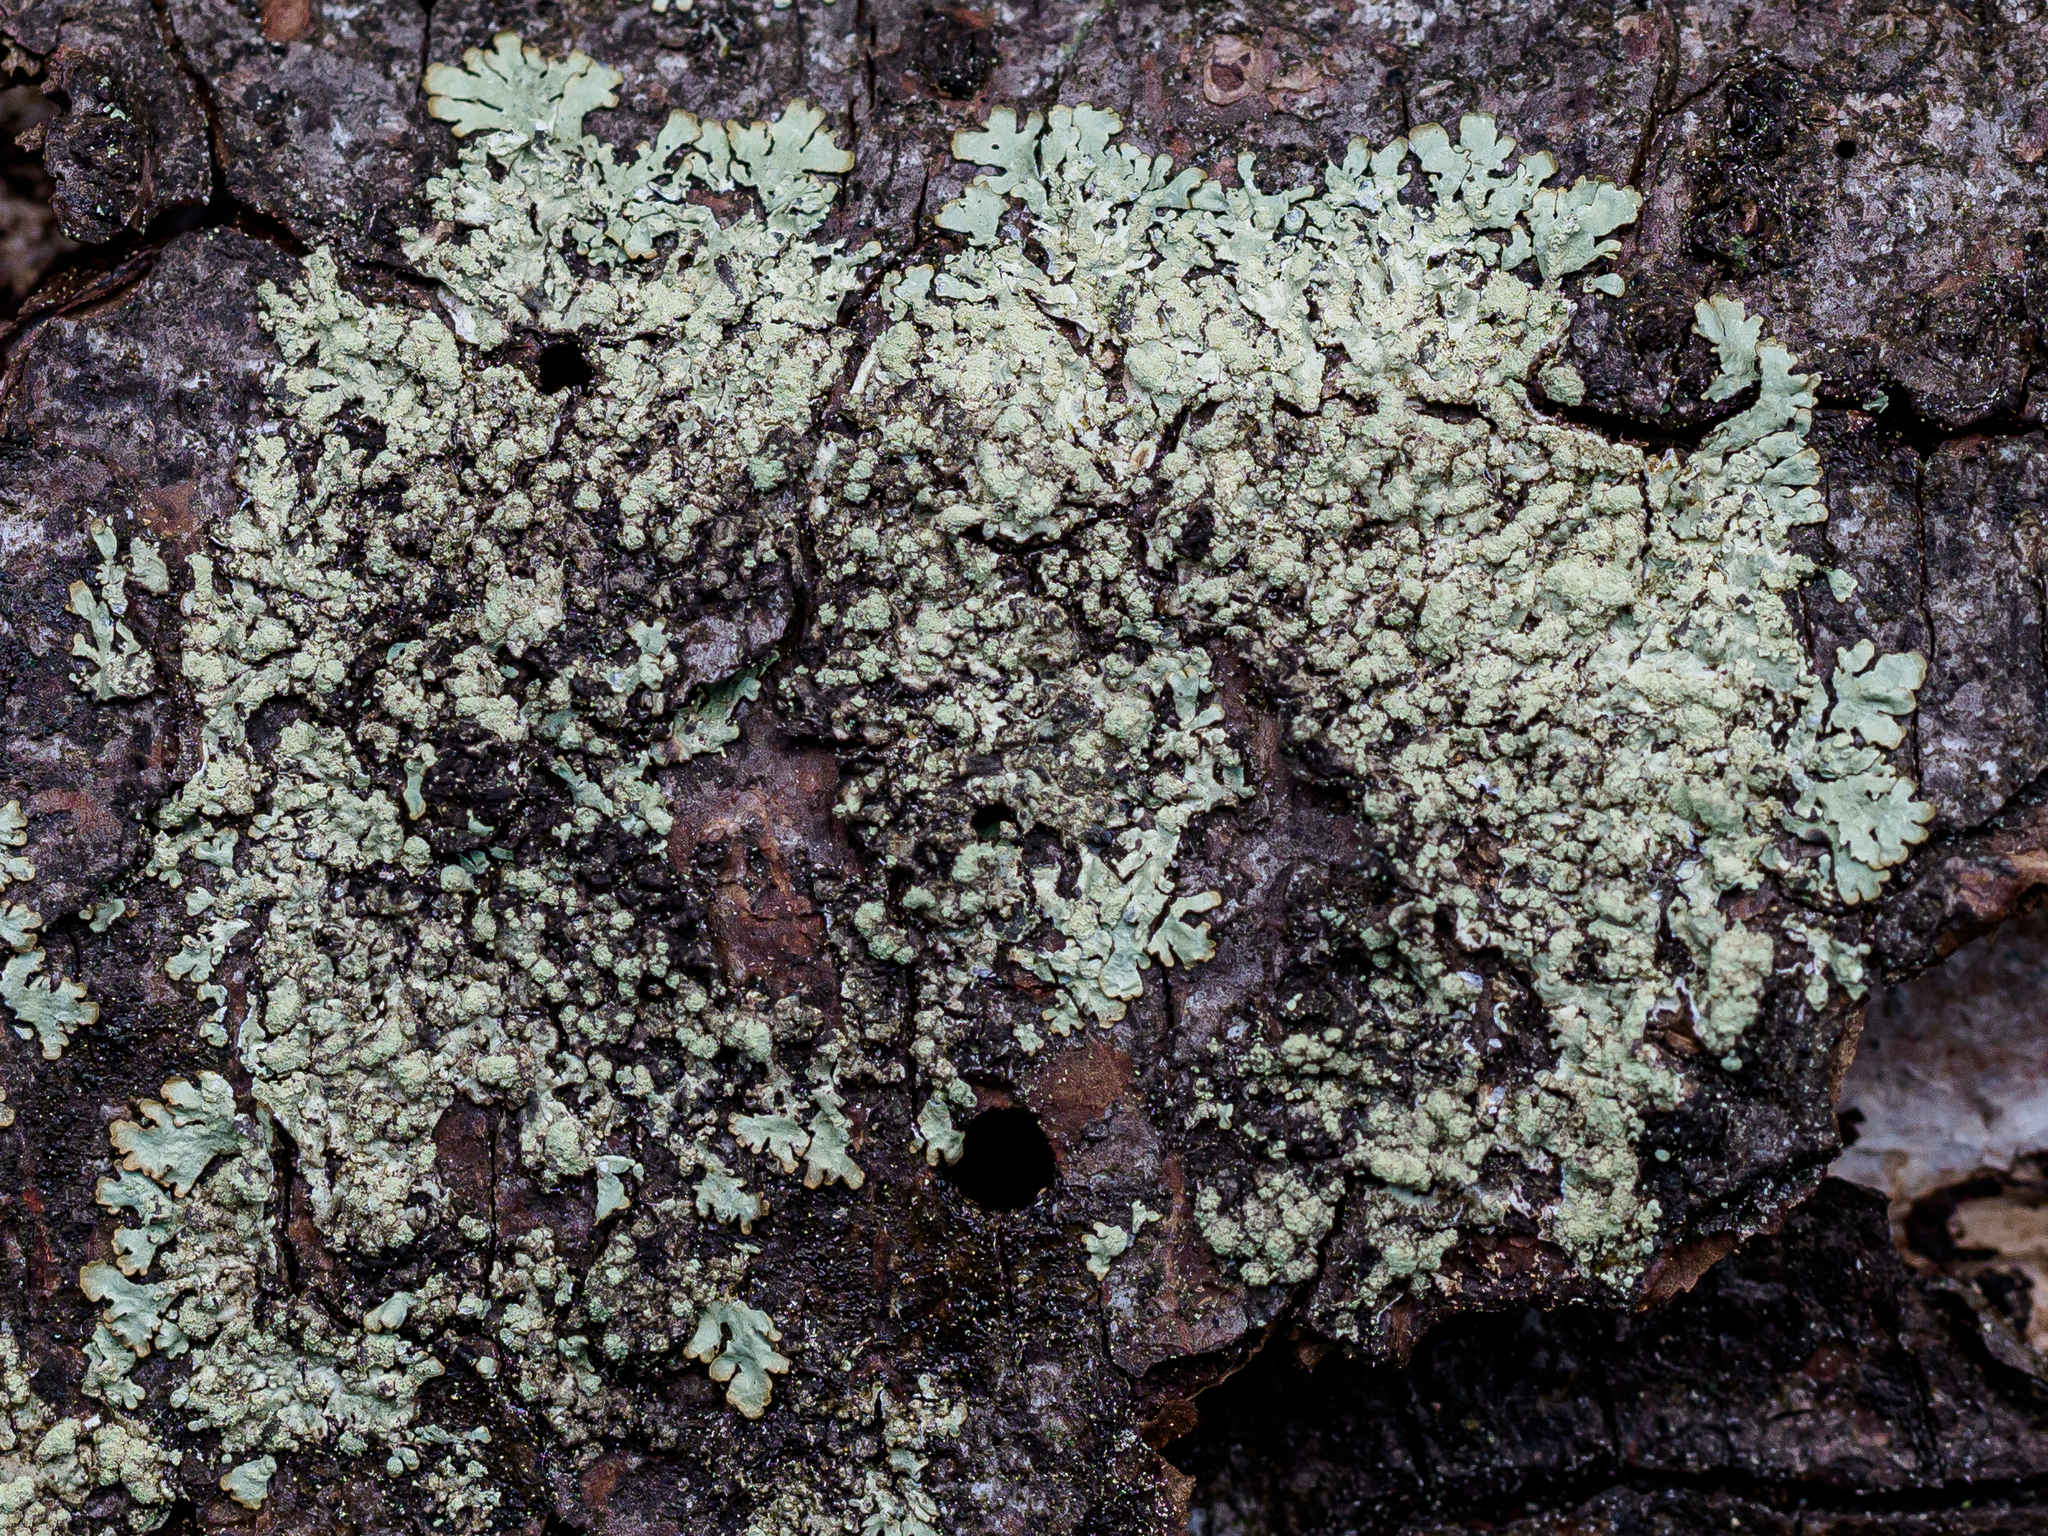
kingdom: Fungi
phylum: Ascomycota
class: Lecanoromycetes
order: Lecanorales
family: Parmeliaceae
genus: Parmeliopsis
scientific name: Parmeliopsis ambigua
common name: Green starburst lichen
